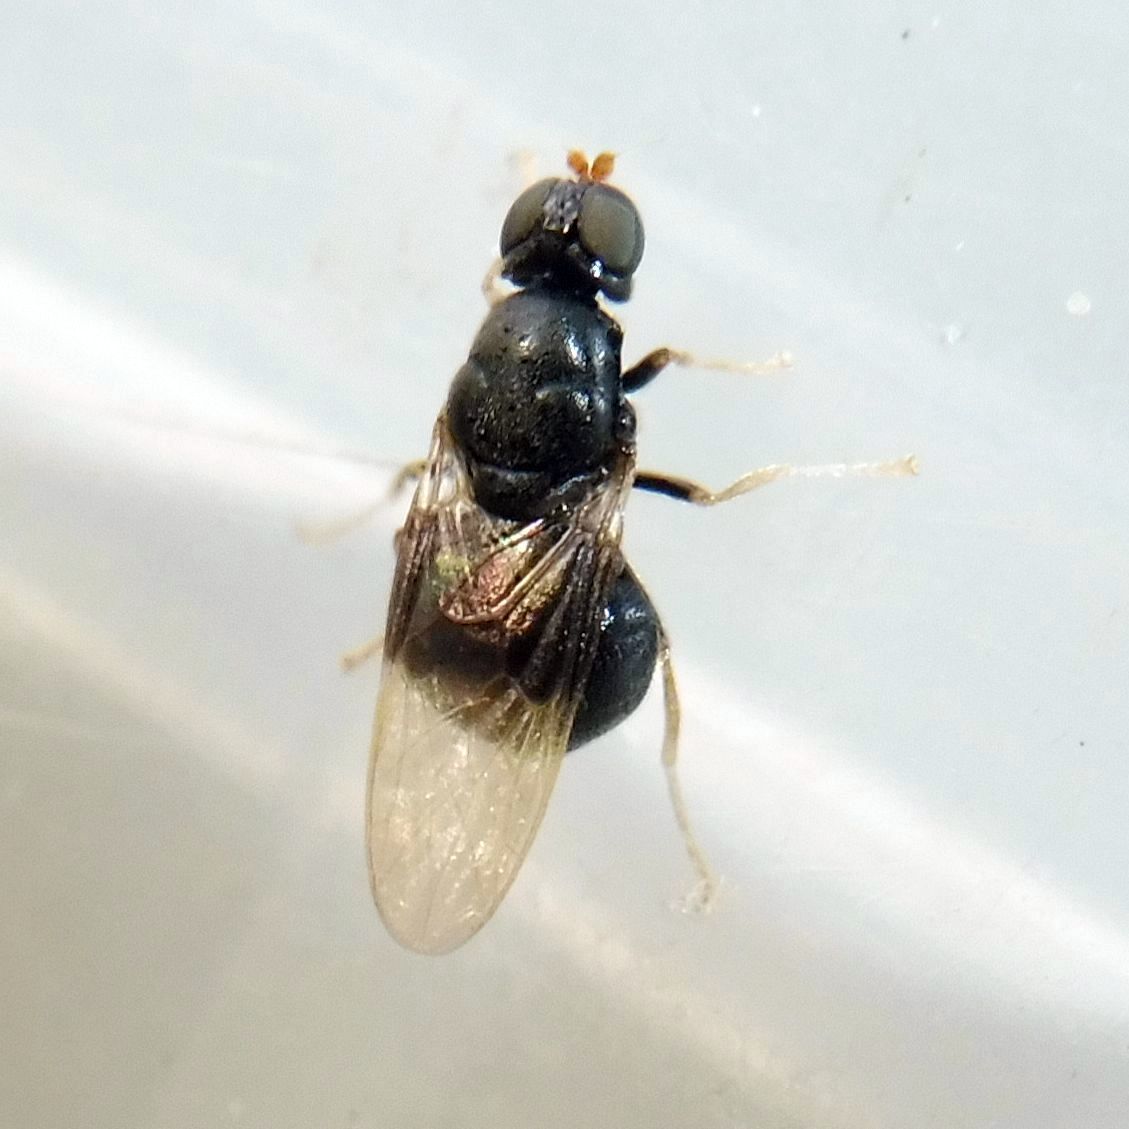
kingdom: Animalia
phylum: Arthropoda
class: Insecta
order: Diptera
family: Stratiomyidae
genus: Pachygaster
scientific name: Pachygaster atra
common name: Dark-winged black
